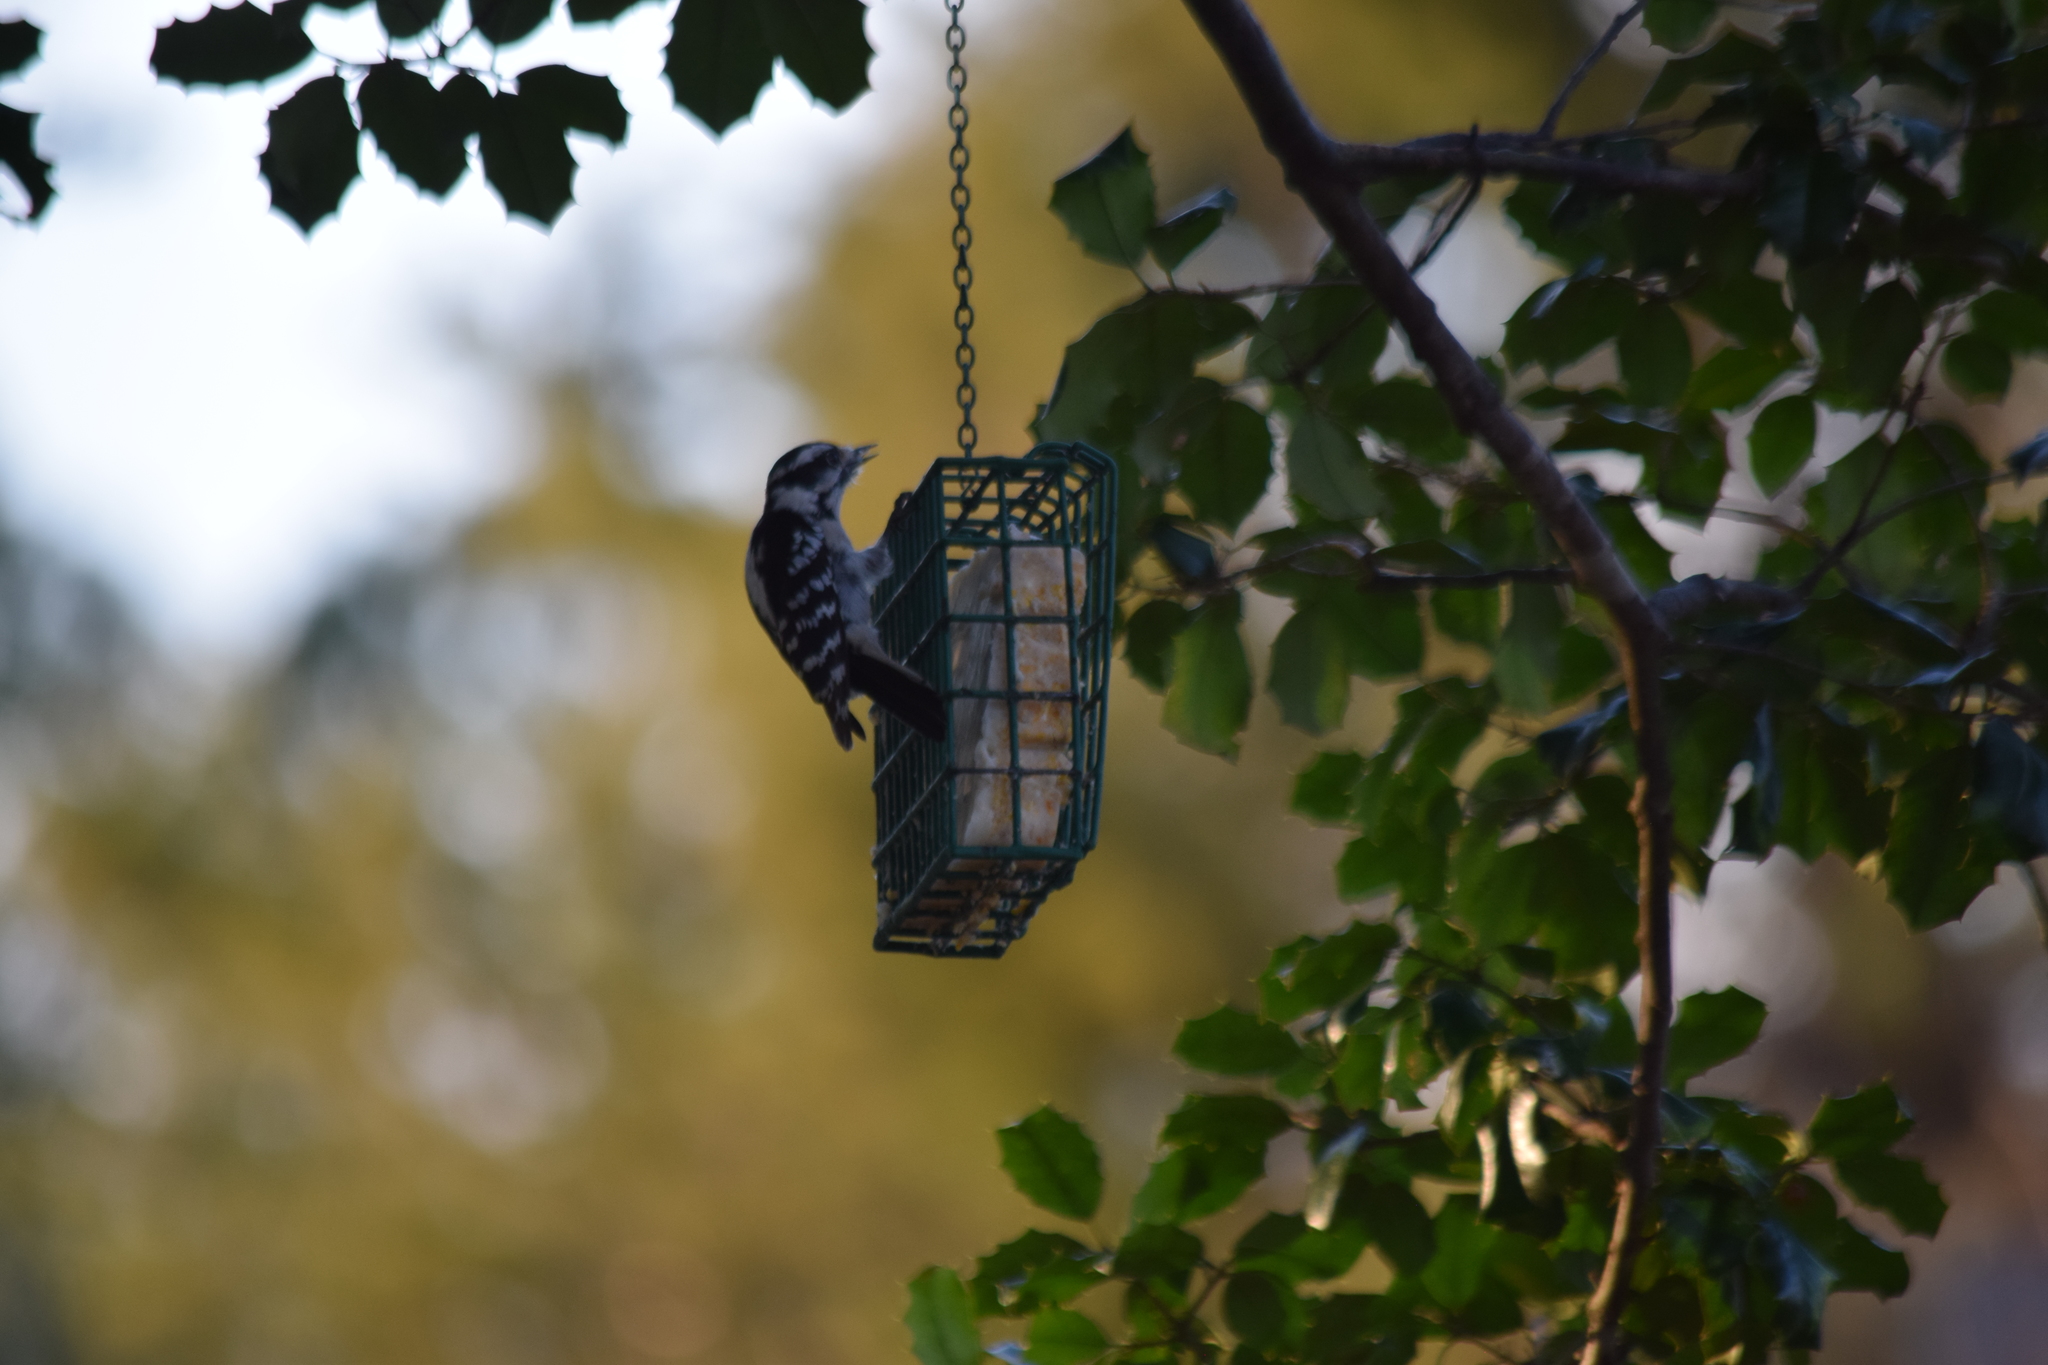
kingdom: Animalia
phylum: Chordata
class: Aves
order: Piciformes
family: Picidae
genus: Dryobates
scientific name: Dryobates pubescens
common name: Downy woodpecker
